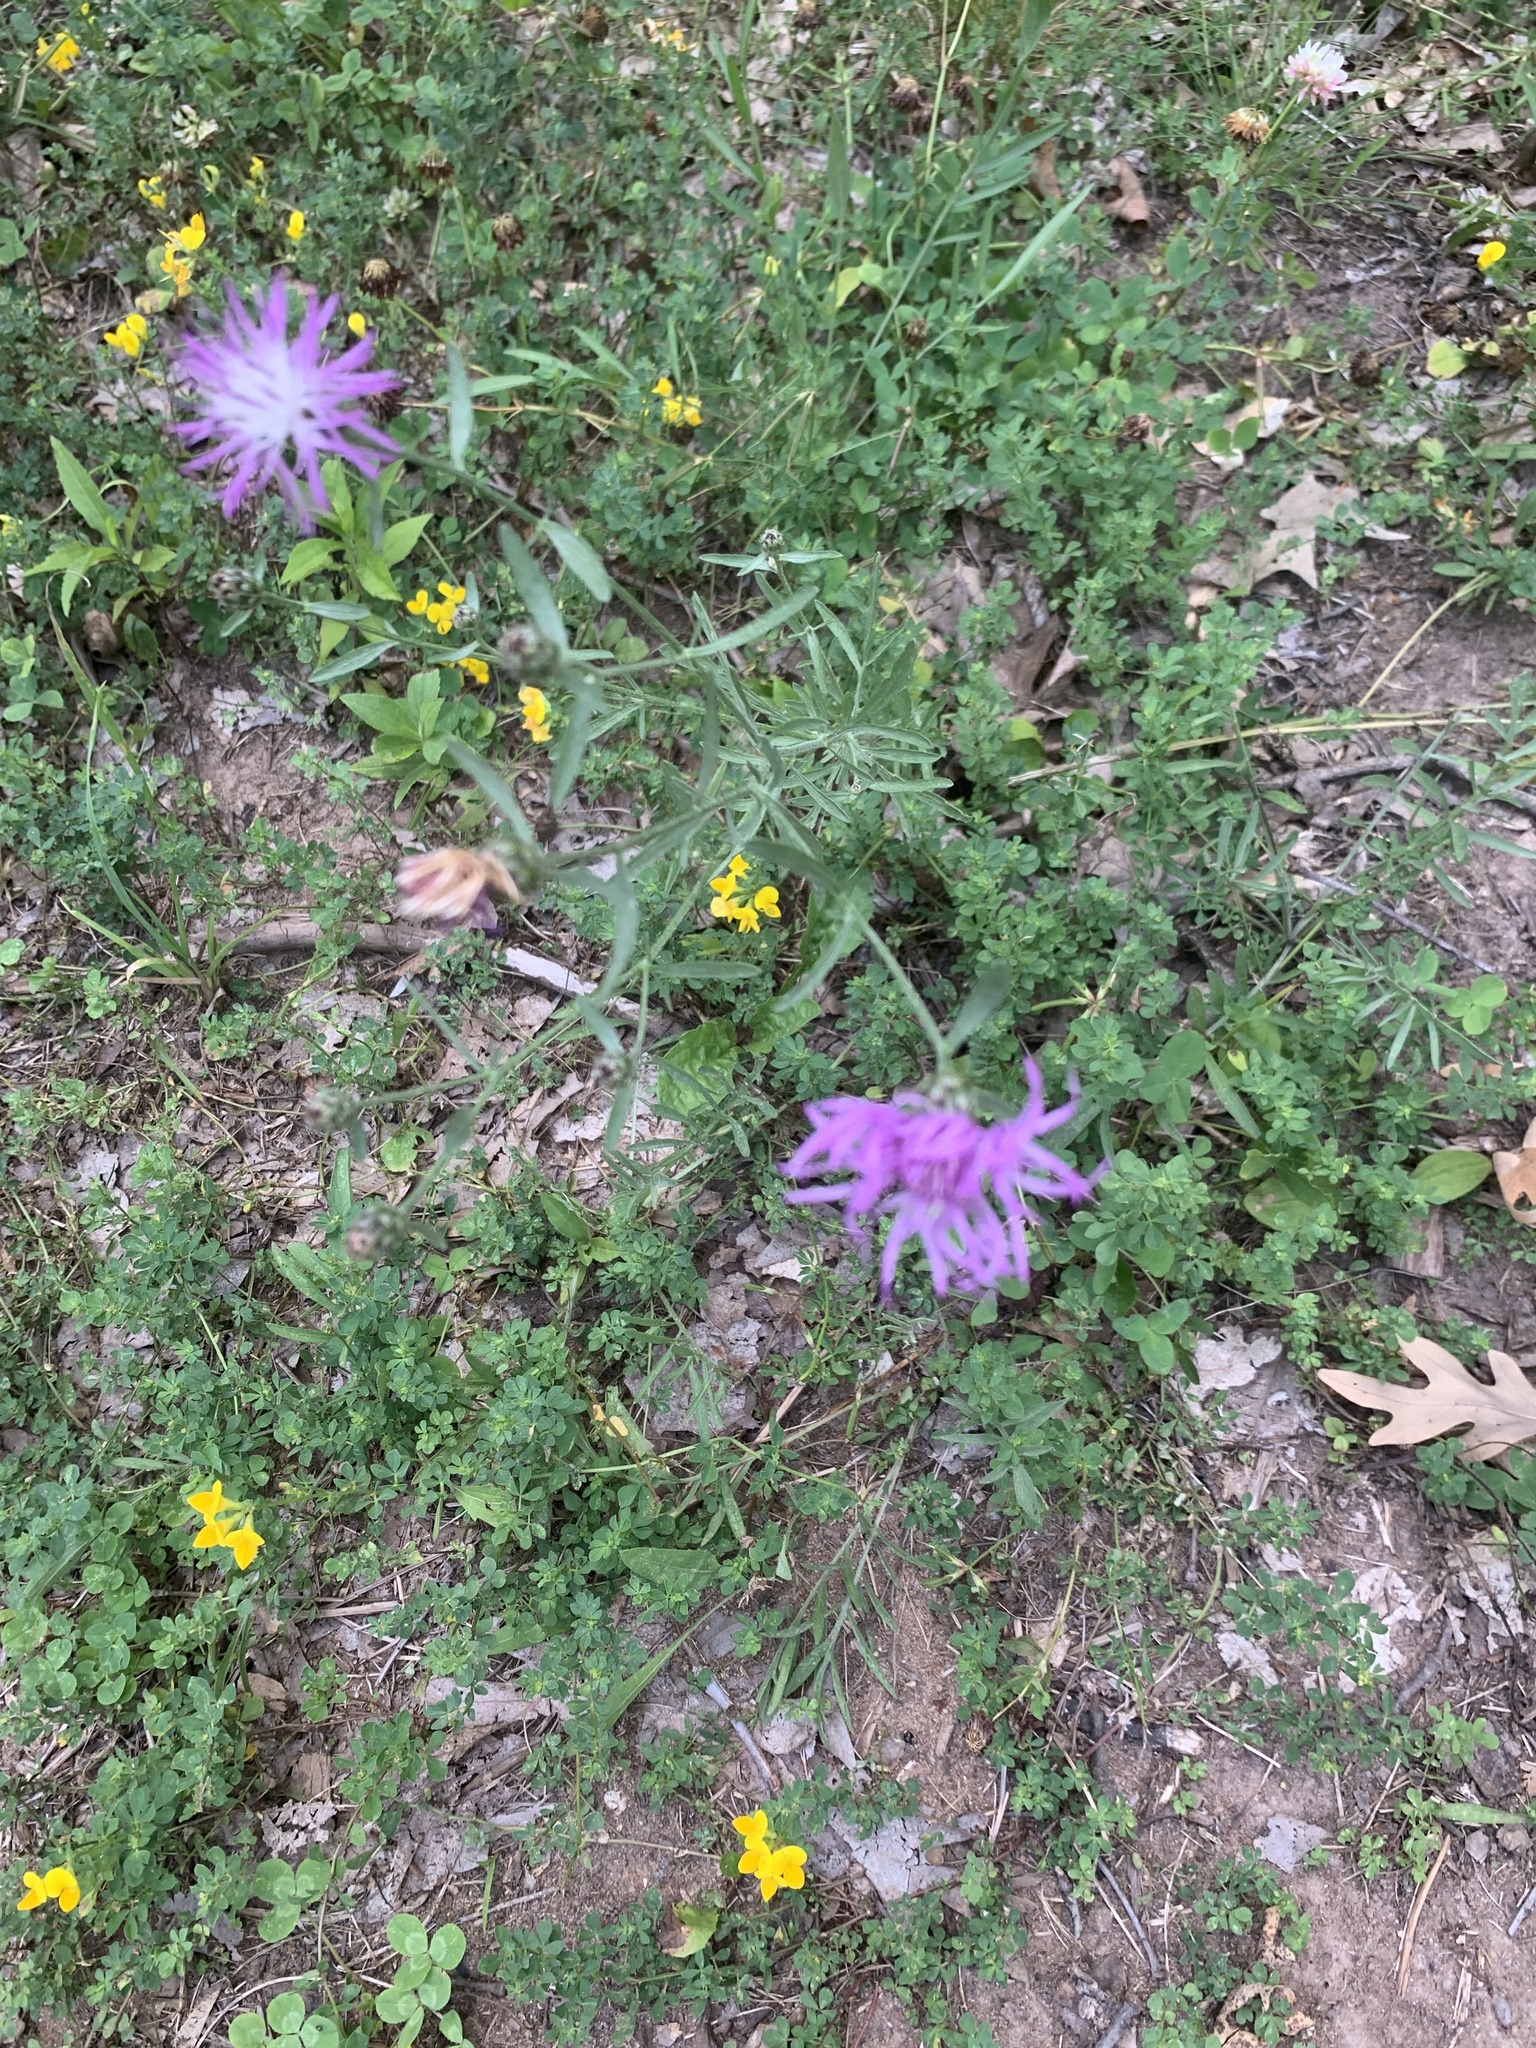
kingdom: Plantae
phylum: Tracheophyta
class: Magnoliopsida
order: Asterales
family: Asteraceae
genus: Centaurea
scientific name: Centaurea stoebe
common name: Spotted knapweed
